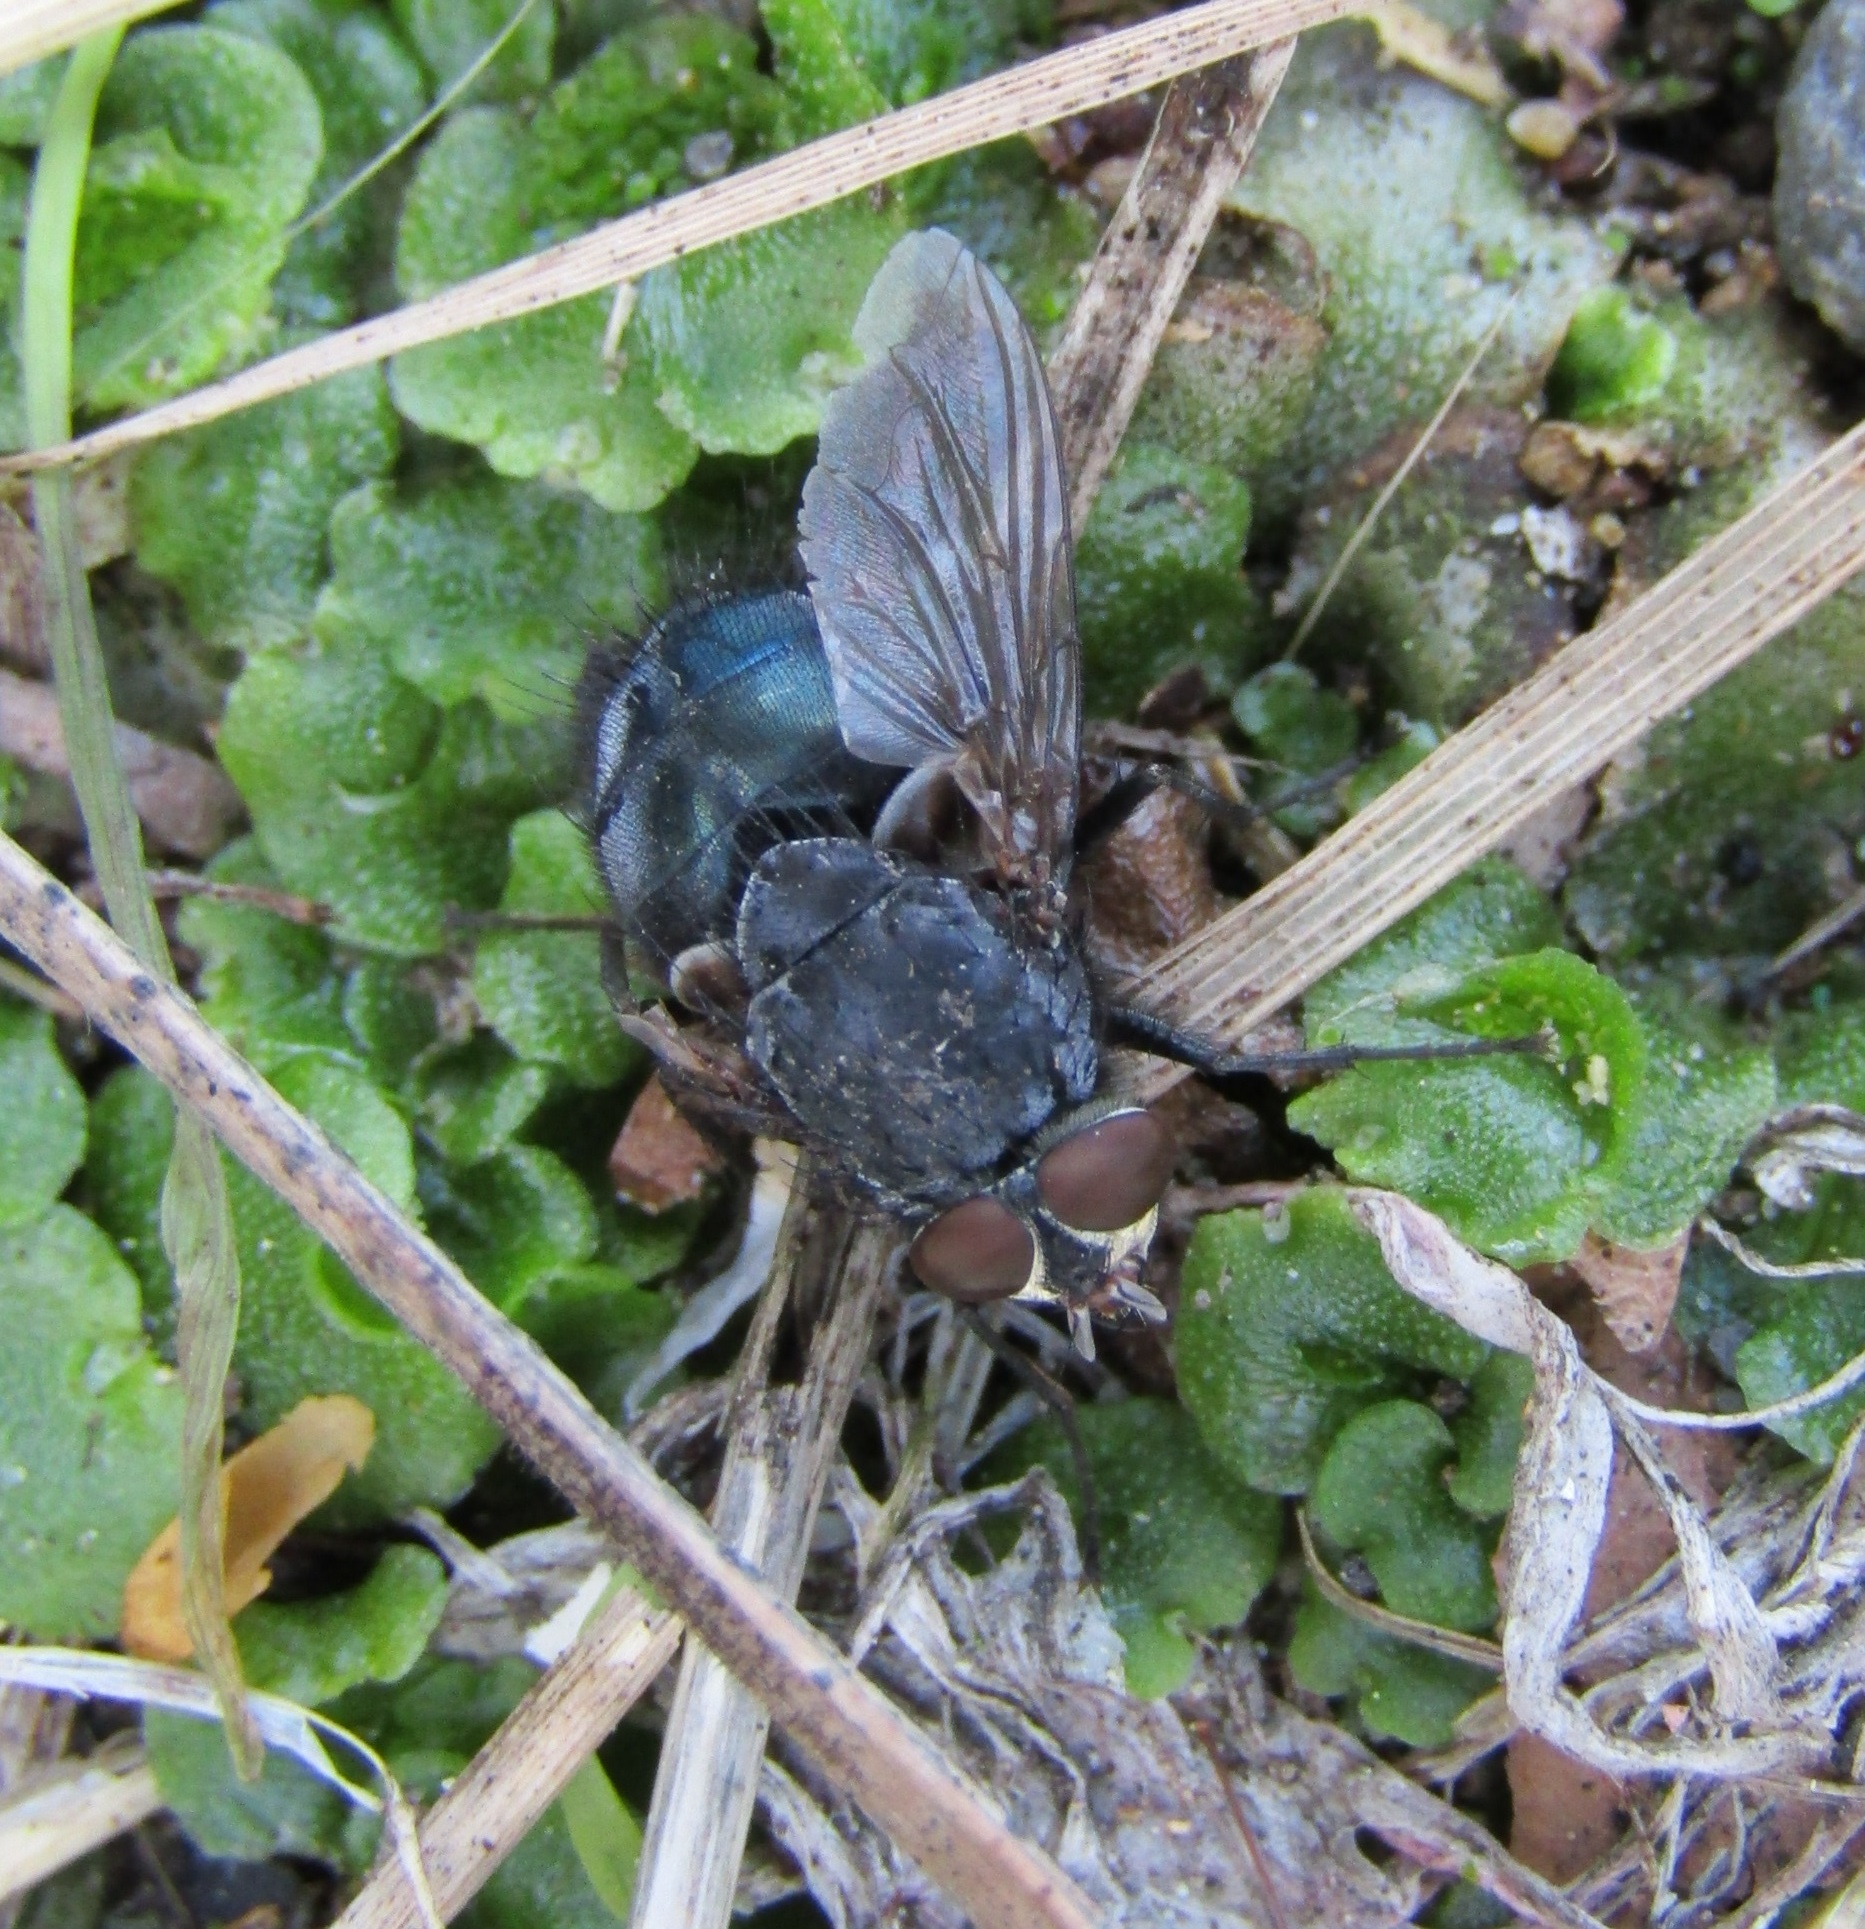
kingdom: Animalia
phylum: Arthropoda
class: Insecta
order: Diptera
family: Calliphoridae
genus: Calliphora
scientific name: Calliphora vicina
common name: Common blow flie
